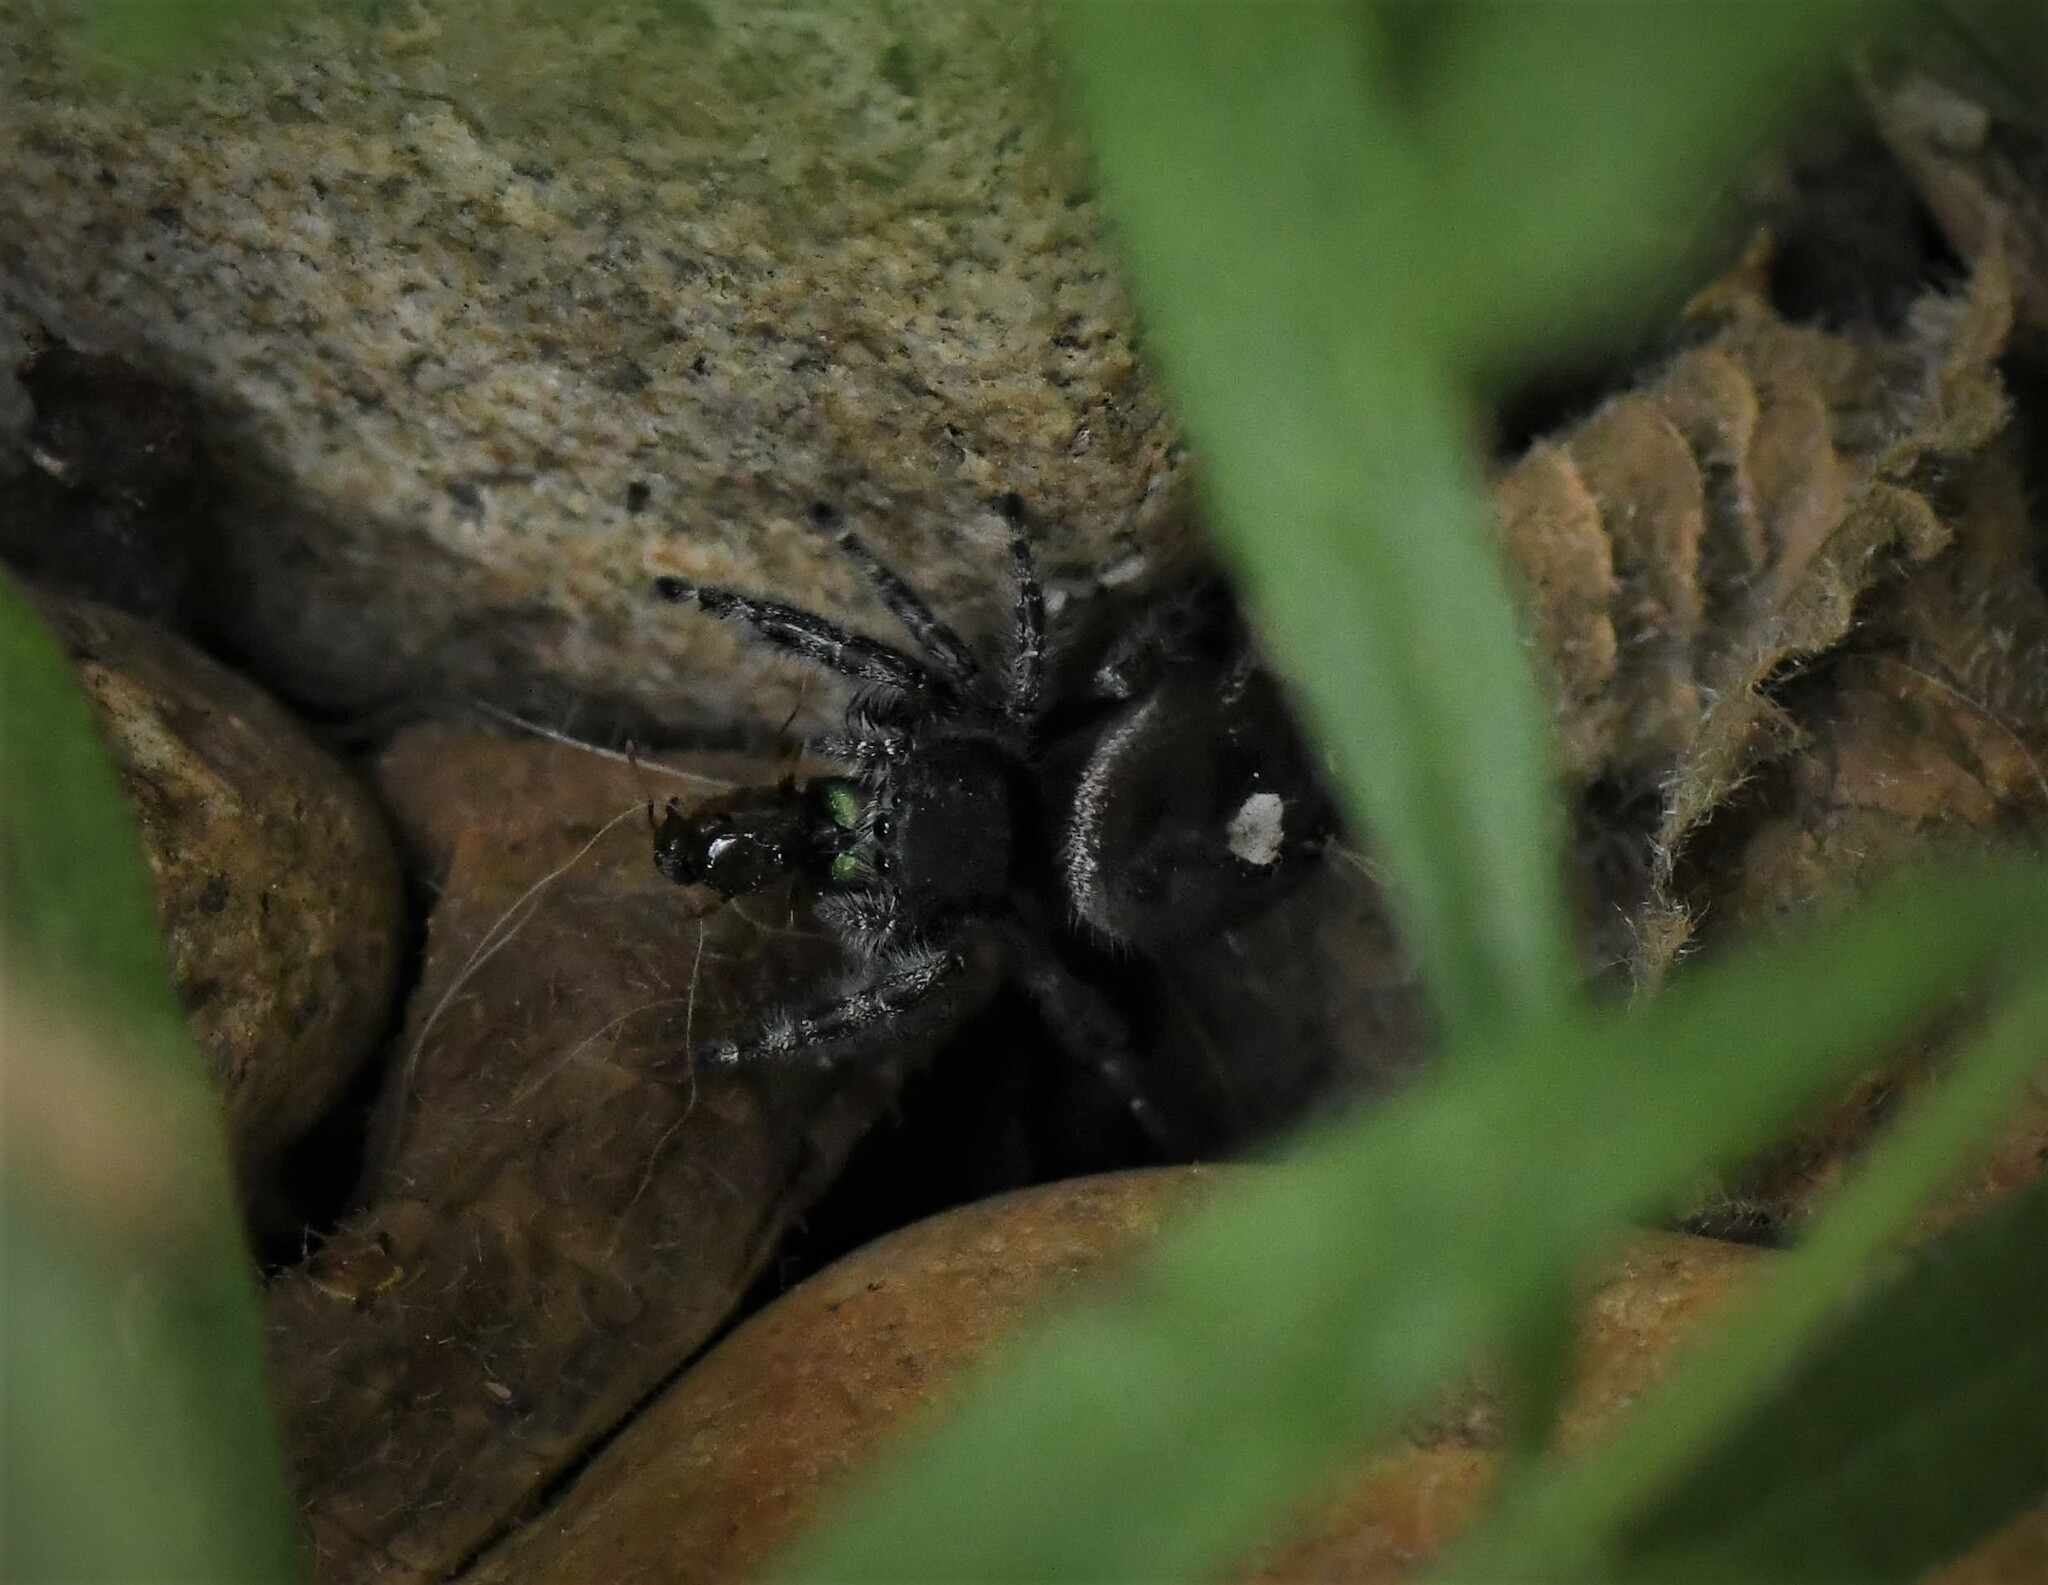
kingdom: Animalia
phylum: Arthropoda
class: Arachnida
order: Araneae
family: Salticidae
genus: Phidippus
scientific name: Phidippus audax
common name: Bold jumper
